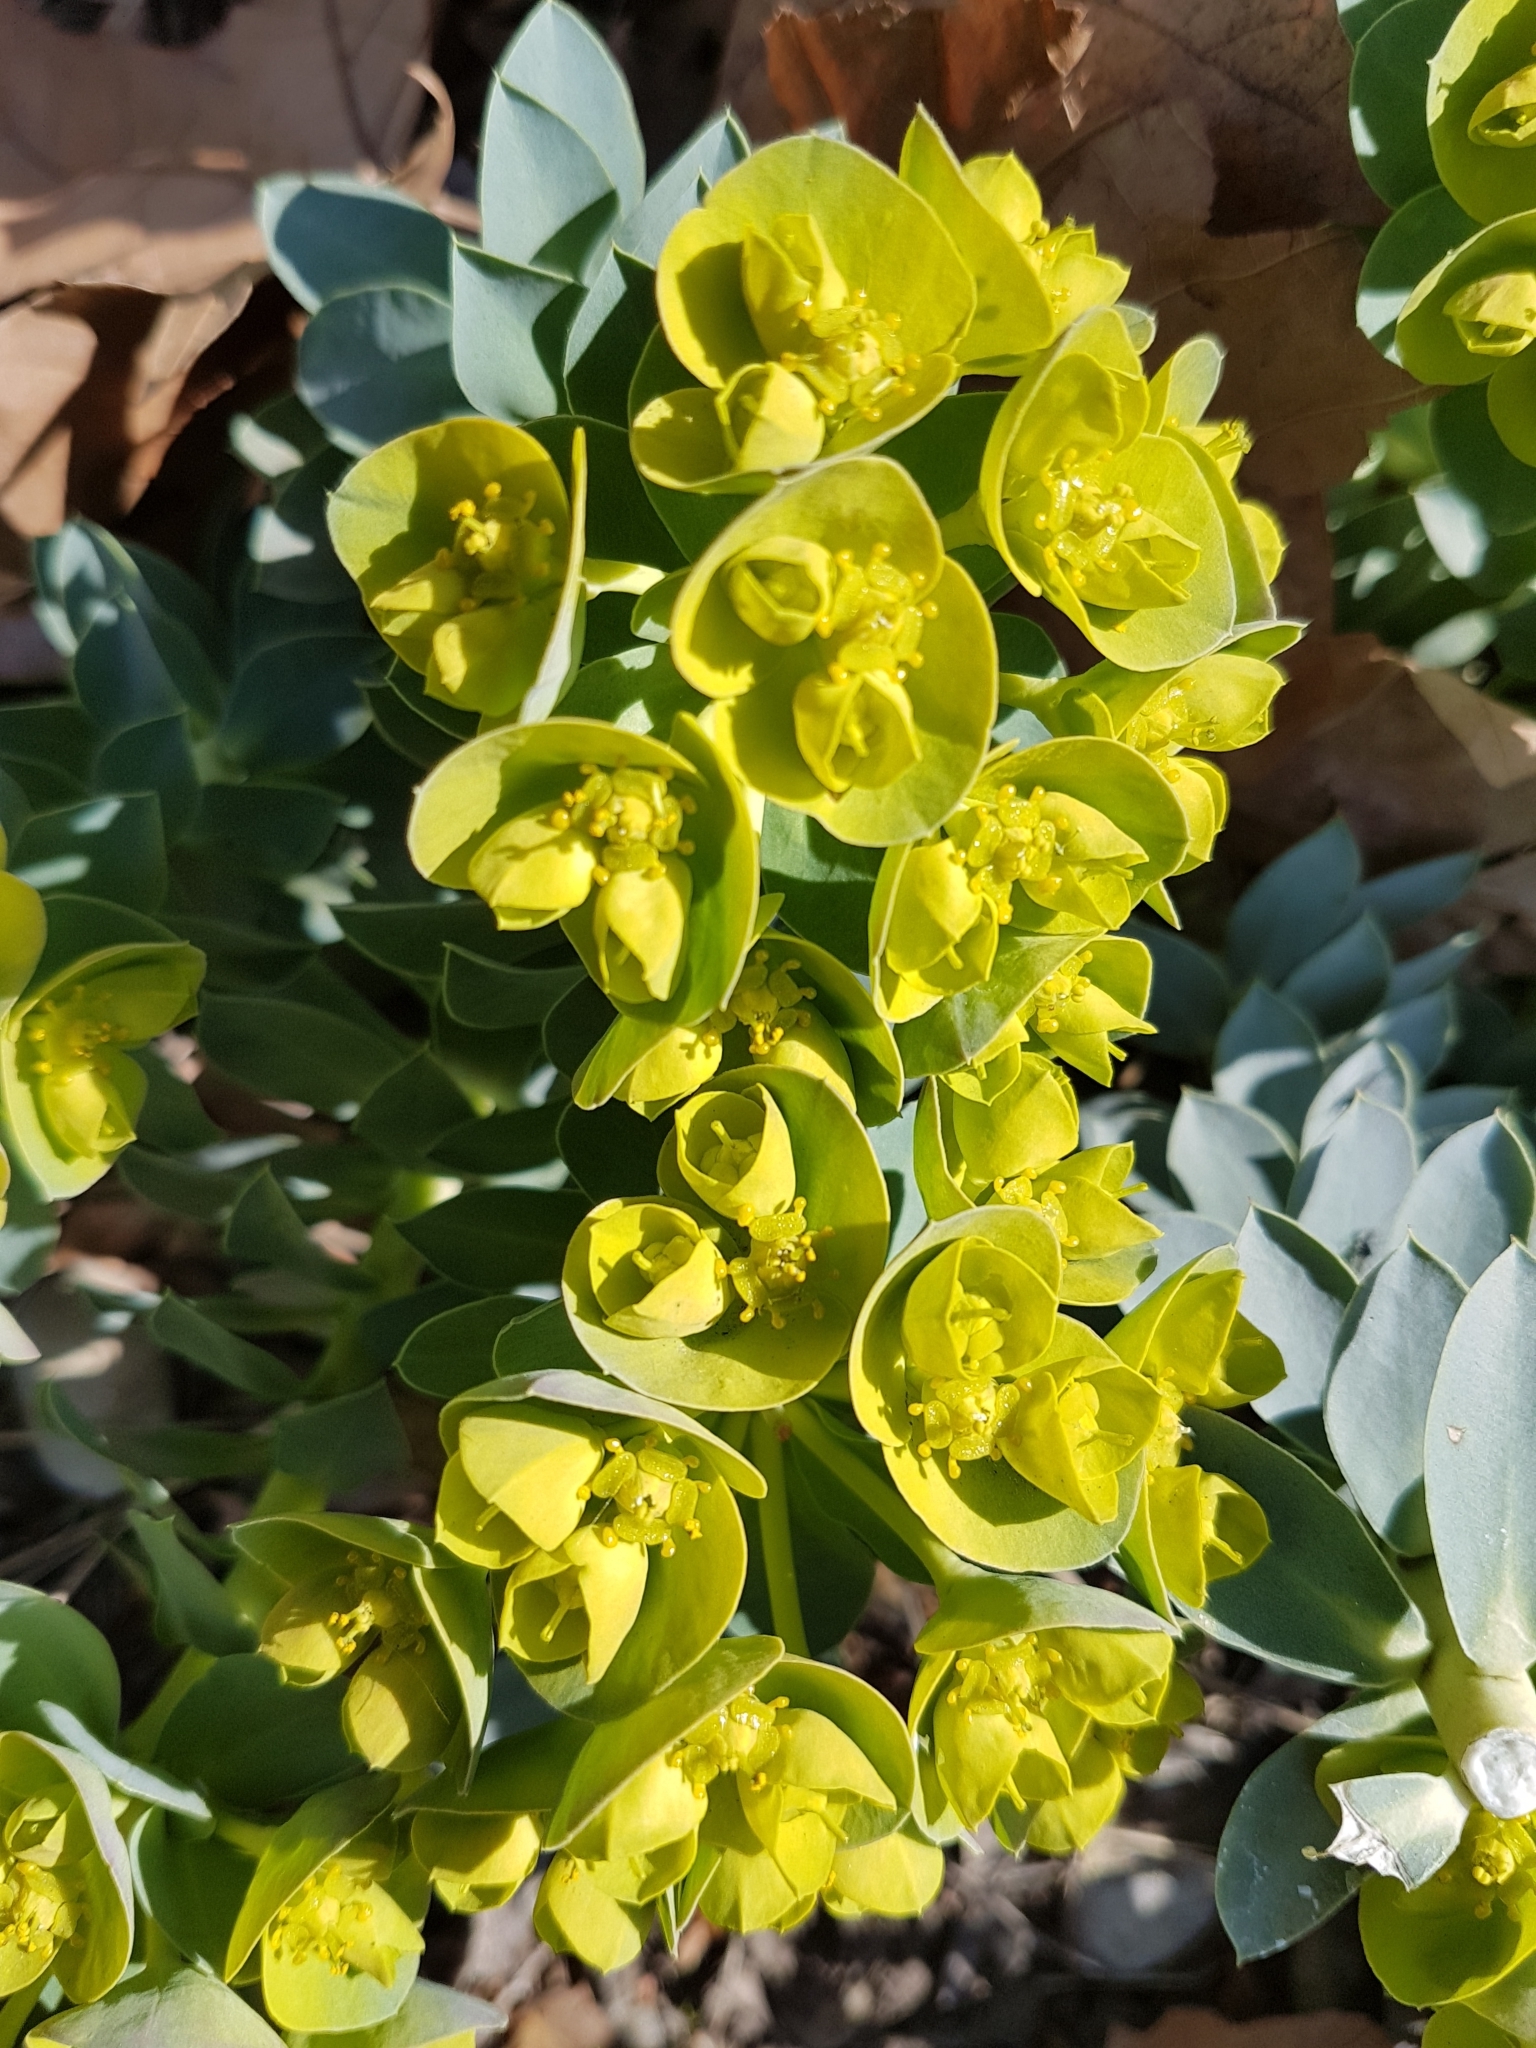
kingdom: Plantae
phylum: Tracheophyta
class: Magnoliopsida
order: Malpighiales
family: Euphorbiaceae
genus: Euphorbia
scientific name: Euphorbia myrsinites
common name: Myrtle spurge
